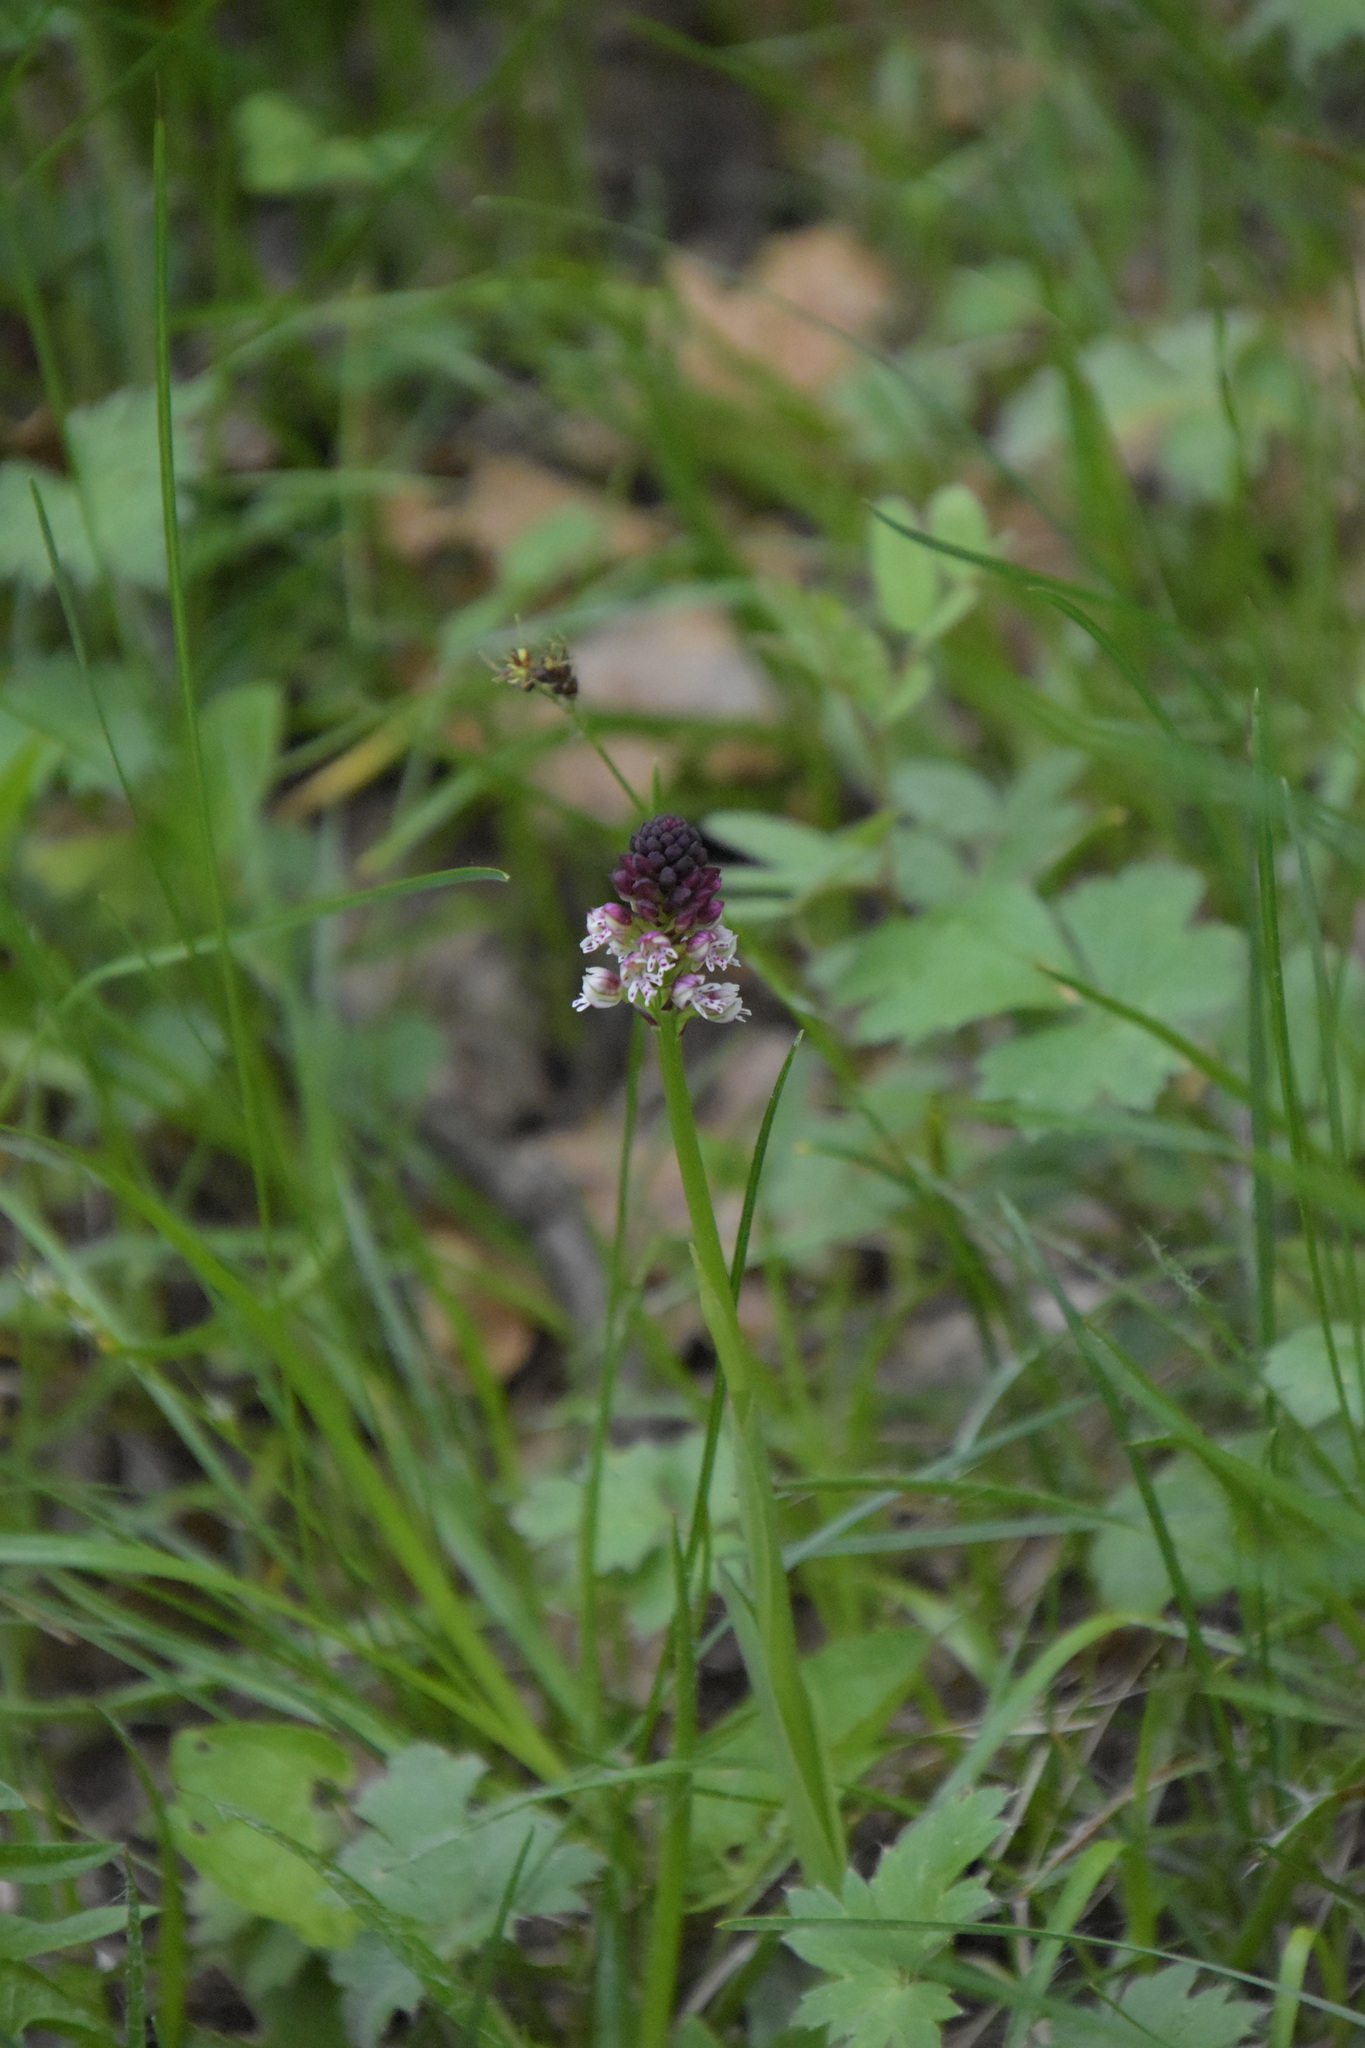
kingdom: Plantae
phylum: Tracheophyta
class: Liliopsida
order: Asparagales
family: Orchidaceae
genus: Neotinea
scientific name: Neotinea ustulata
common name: Burnt orchid
